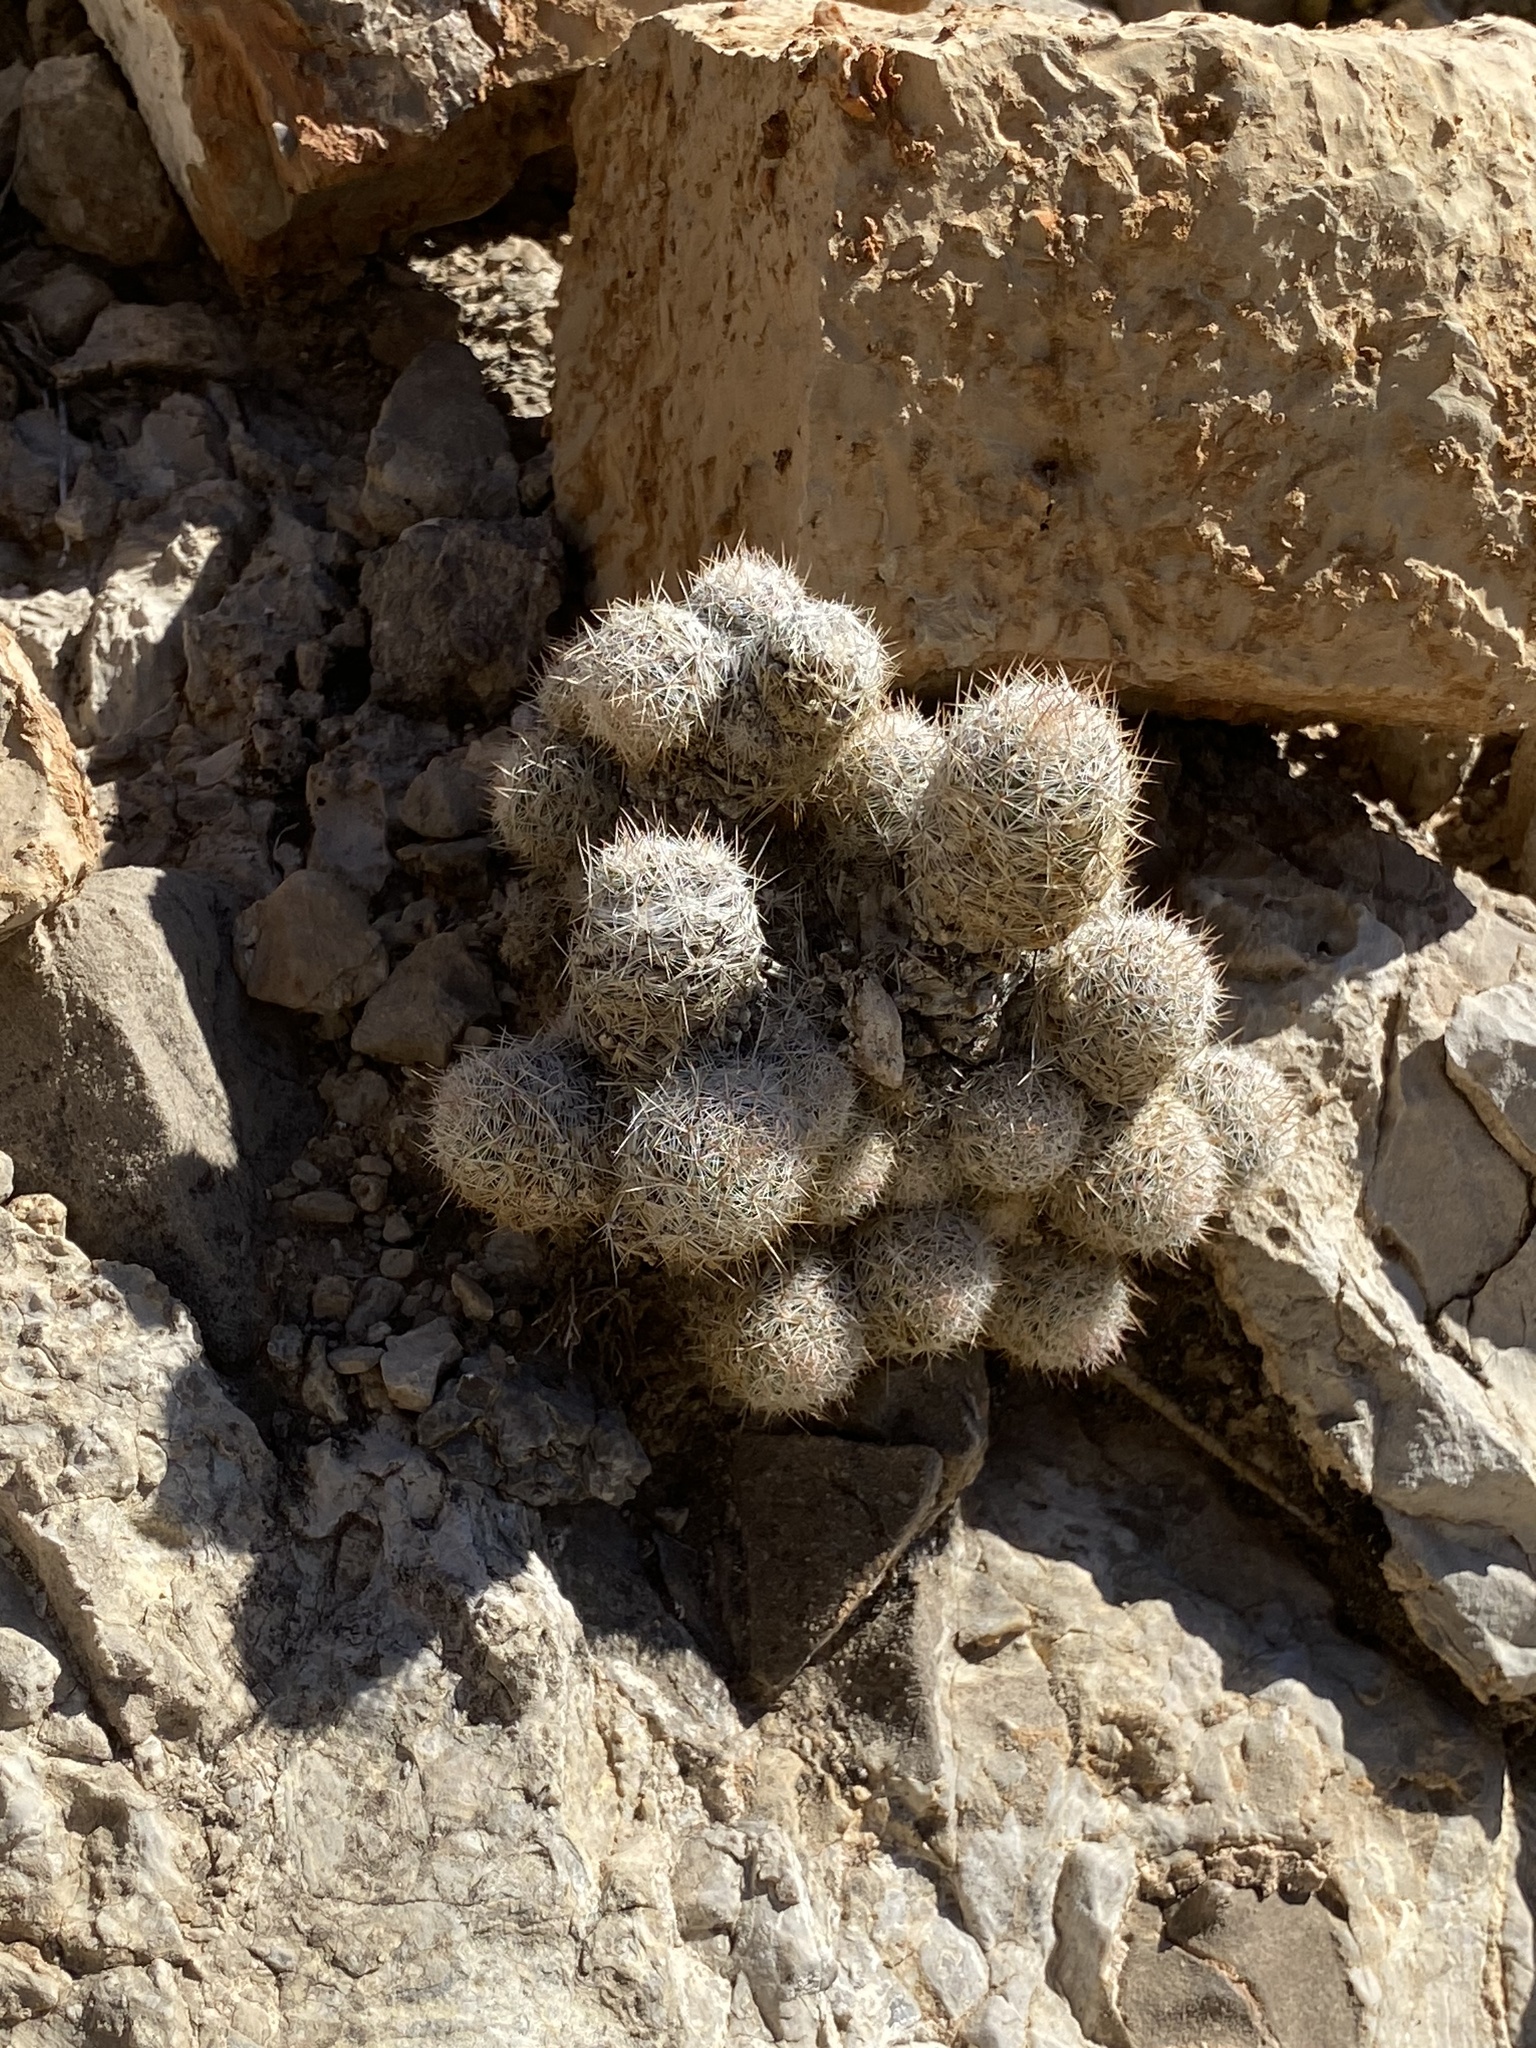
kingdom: Plantae
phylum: Tracheophyta
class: Magnoliopsida
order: Caryophyllales
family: Cactaceae
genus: Pelecyphora
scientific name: Pelecyphora tuberculosa
